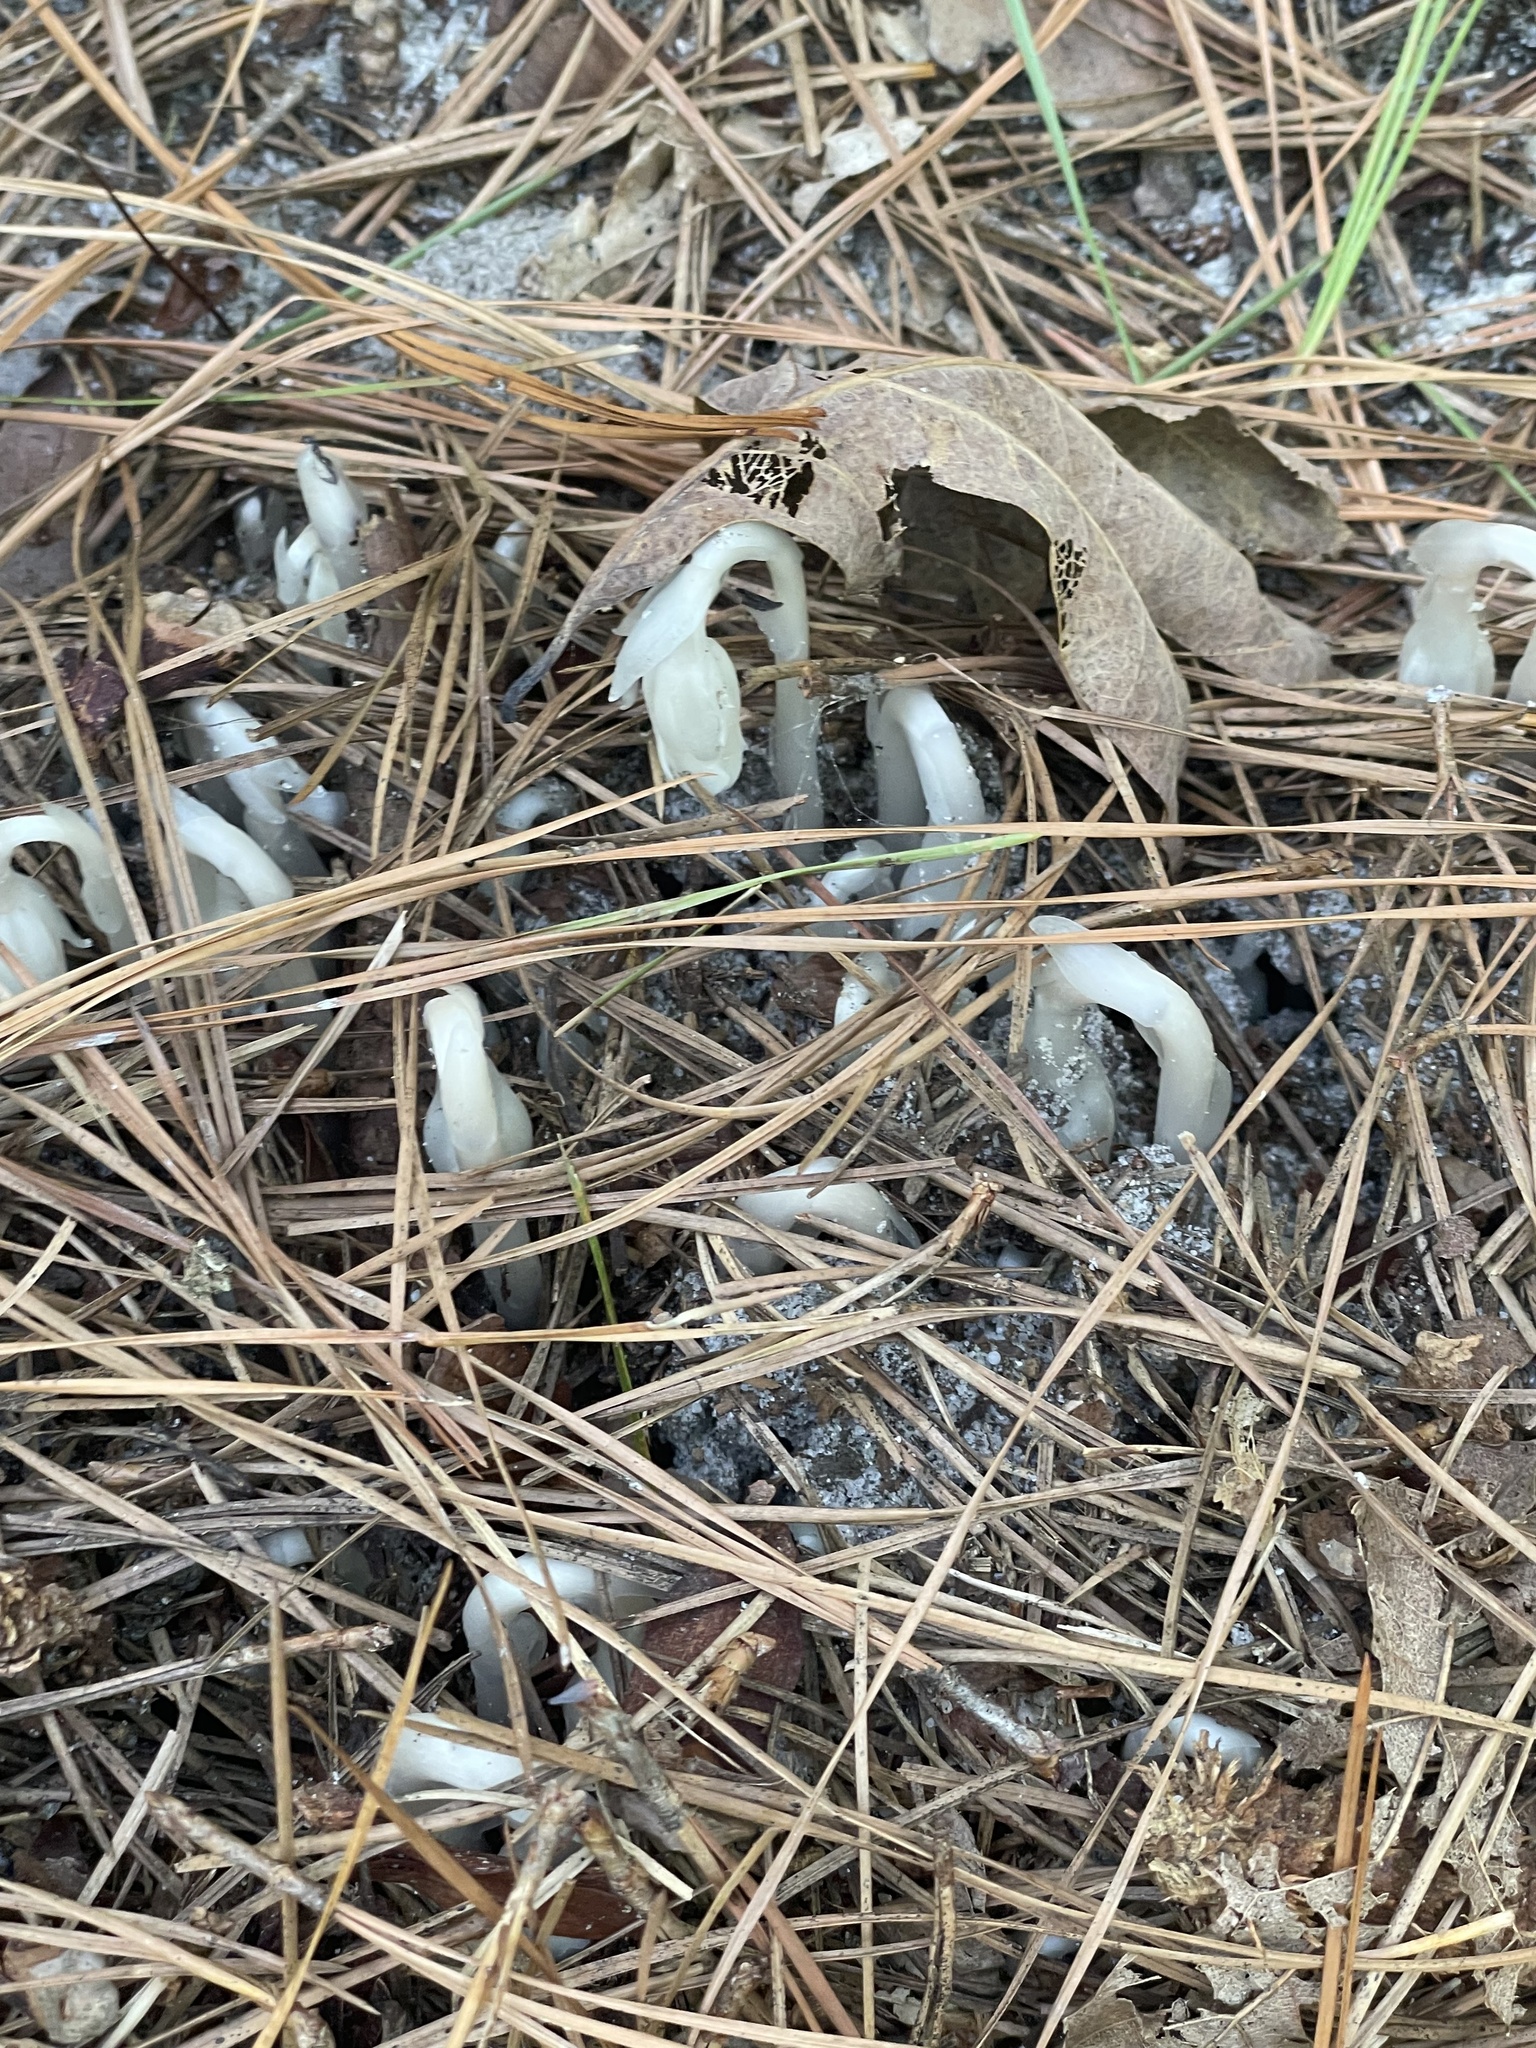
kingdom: Plantae
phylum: Tracheophyta
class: Magnoliopsida
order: Ericales
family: Ericaceae
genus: Monotropa
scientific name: Monotropa uniflora
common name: Convulsion root
